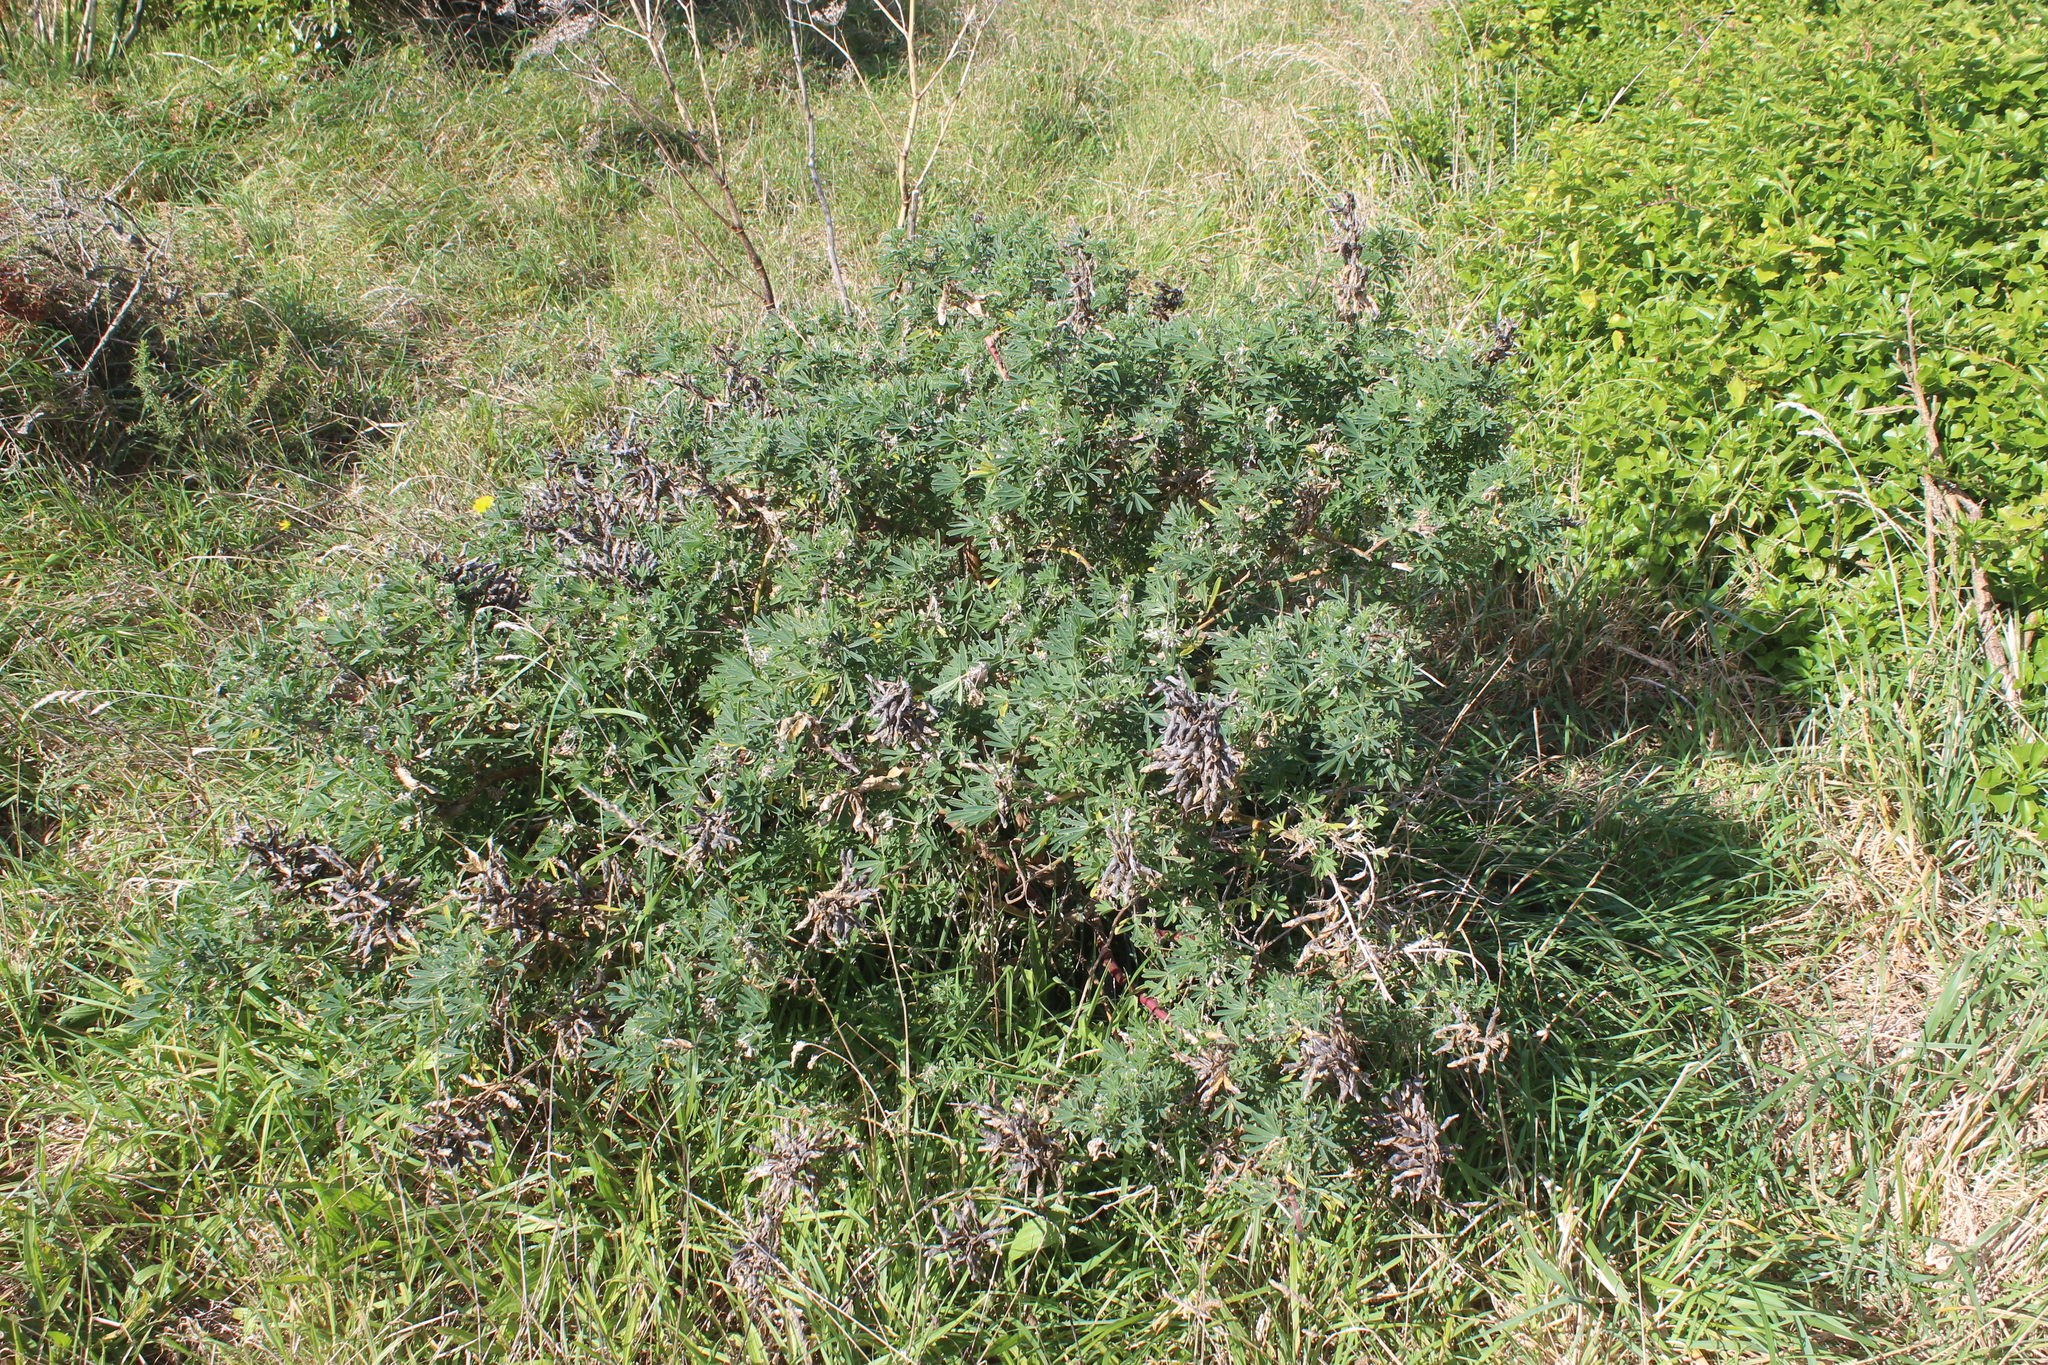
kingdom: Plantae
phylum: Tracheophyta
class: Magnoliopsida
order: Fabales
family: Fabaceae
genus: Lupinus
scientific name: Lupinus arboreus
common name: Yellow bush lupine
